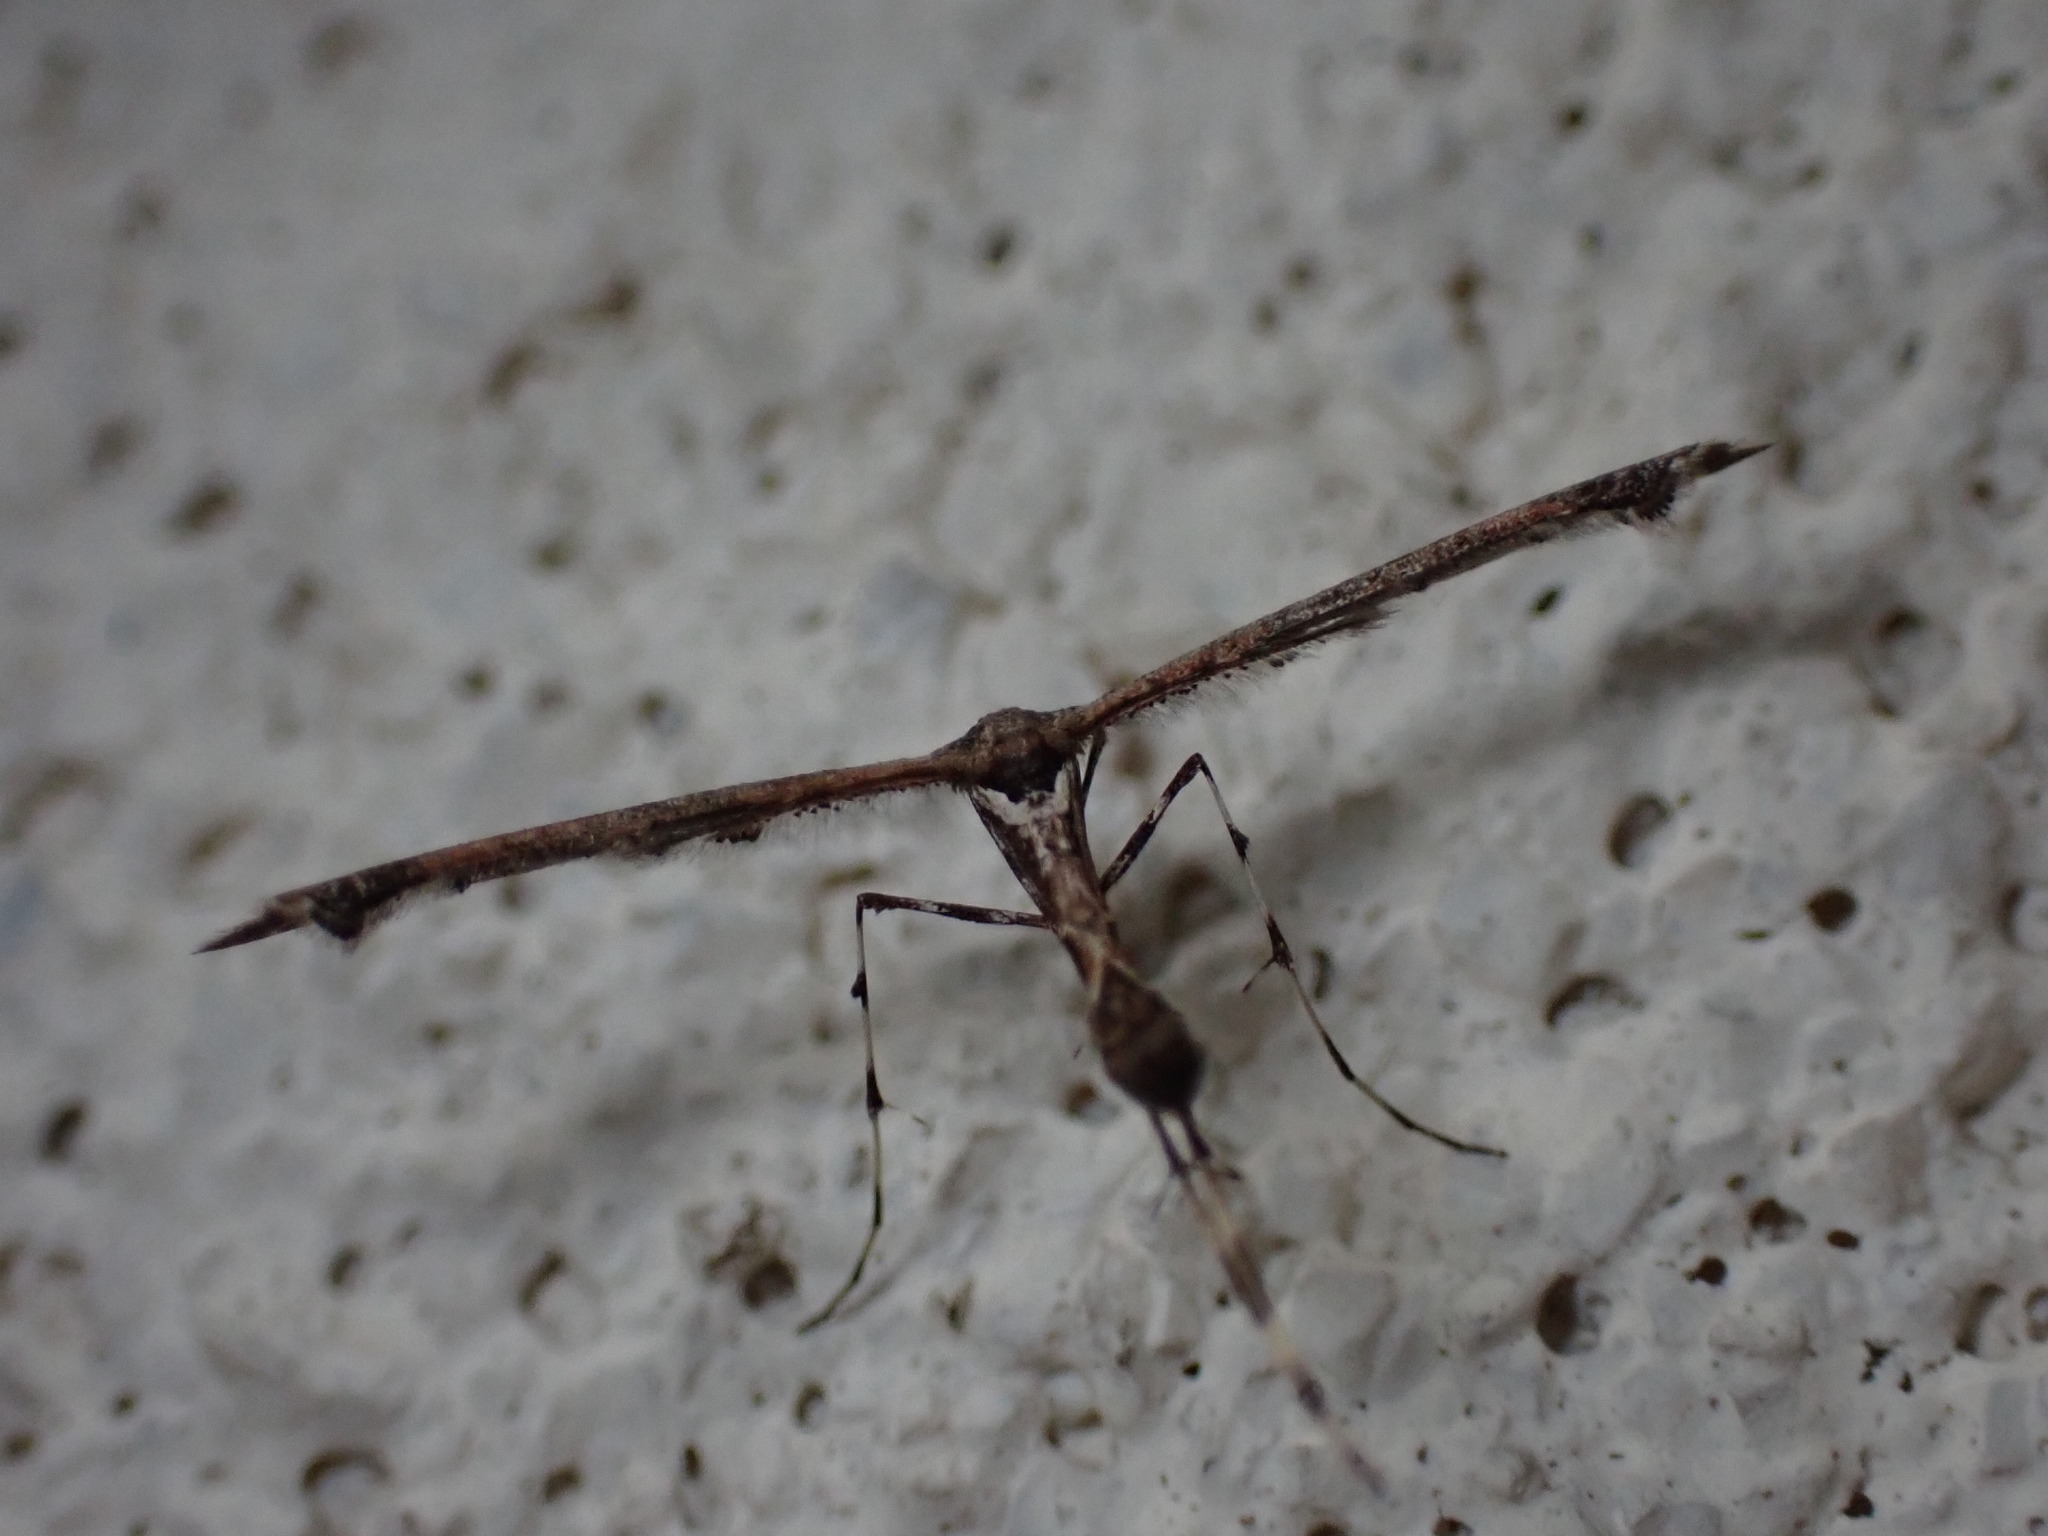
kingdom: Animalia
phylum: Arthropoda
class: Insecta
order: Lepidoptera
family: Pterophoridae
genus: Anstenoptilia
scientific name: Anstenoptilia marmarodactyla
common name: Moth
